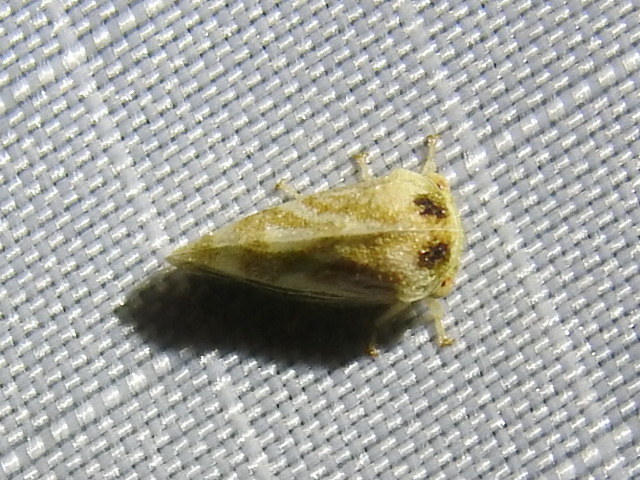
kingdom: Animalia
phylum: Arthropoda
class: Insecta
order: Hemiptera
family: Membracidae
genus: Cyrtolobus
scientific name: Cyrtolobus maculifrontis
